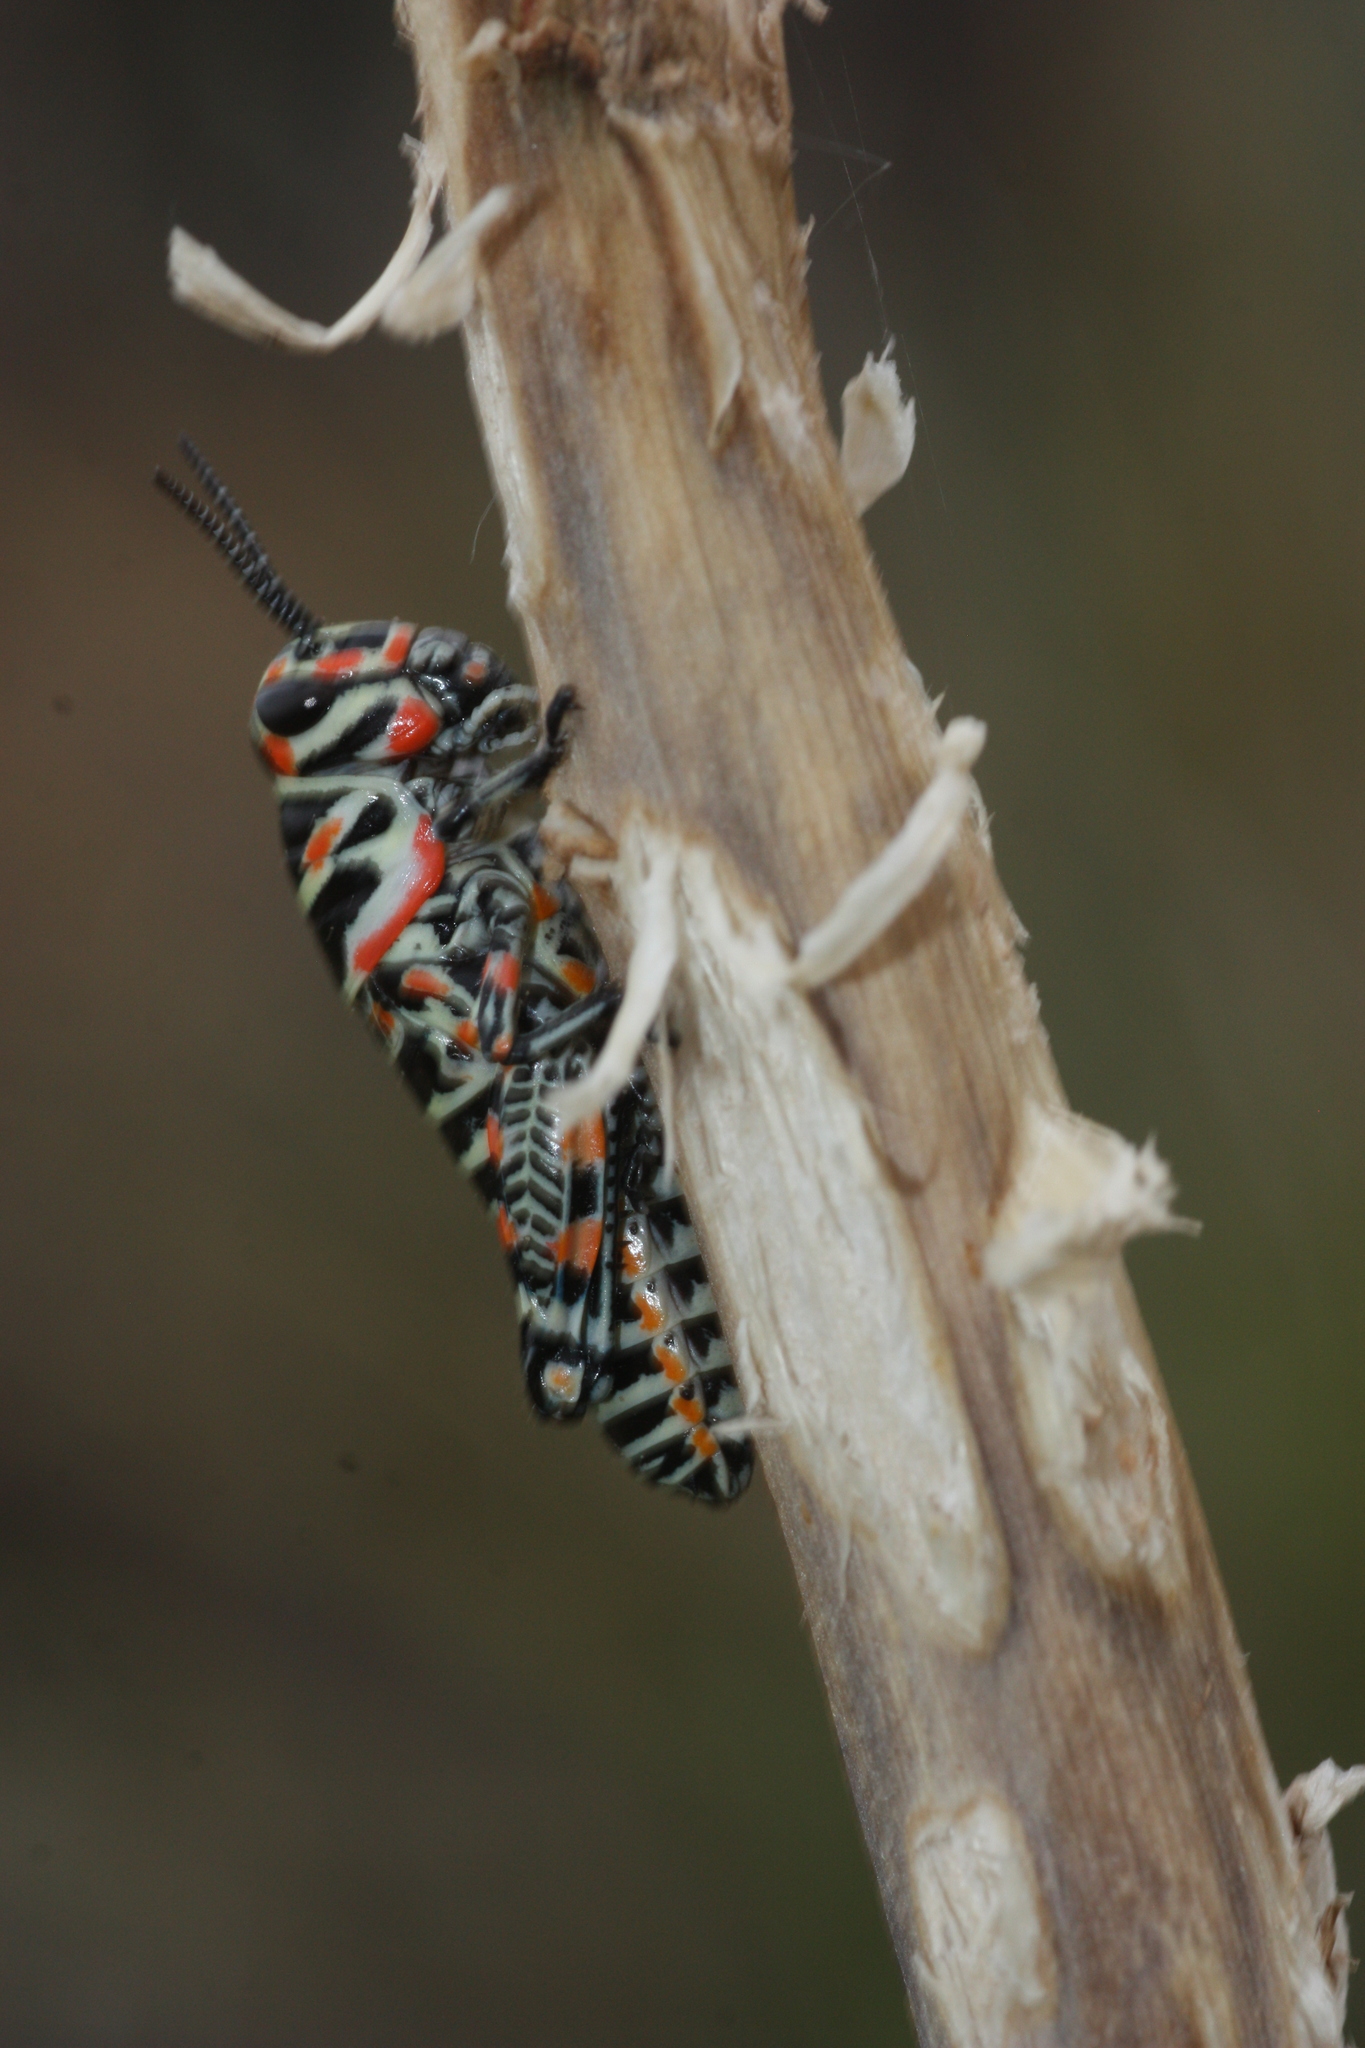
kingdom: Animalia
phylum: Arthropoda
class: Insecta
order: Orthoptera
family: Acrididae
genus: Dactylotum
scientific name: Dactylotum bicolor
